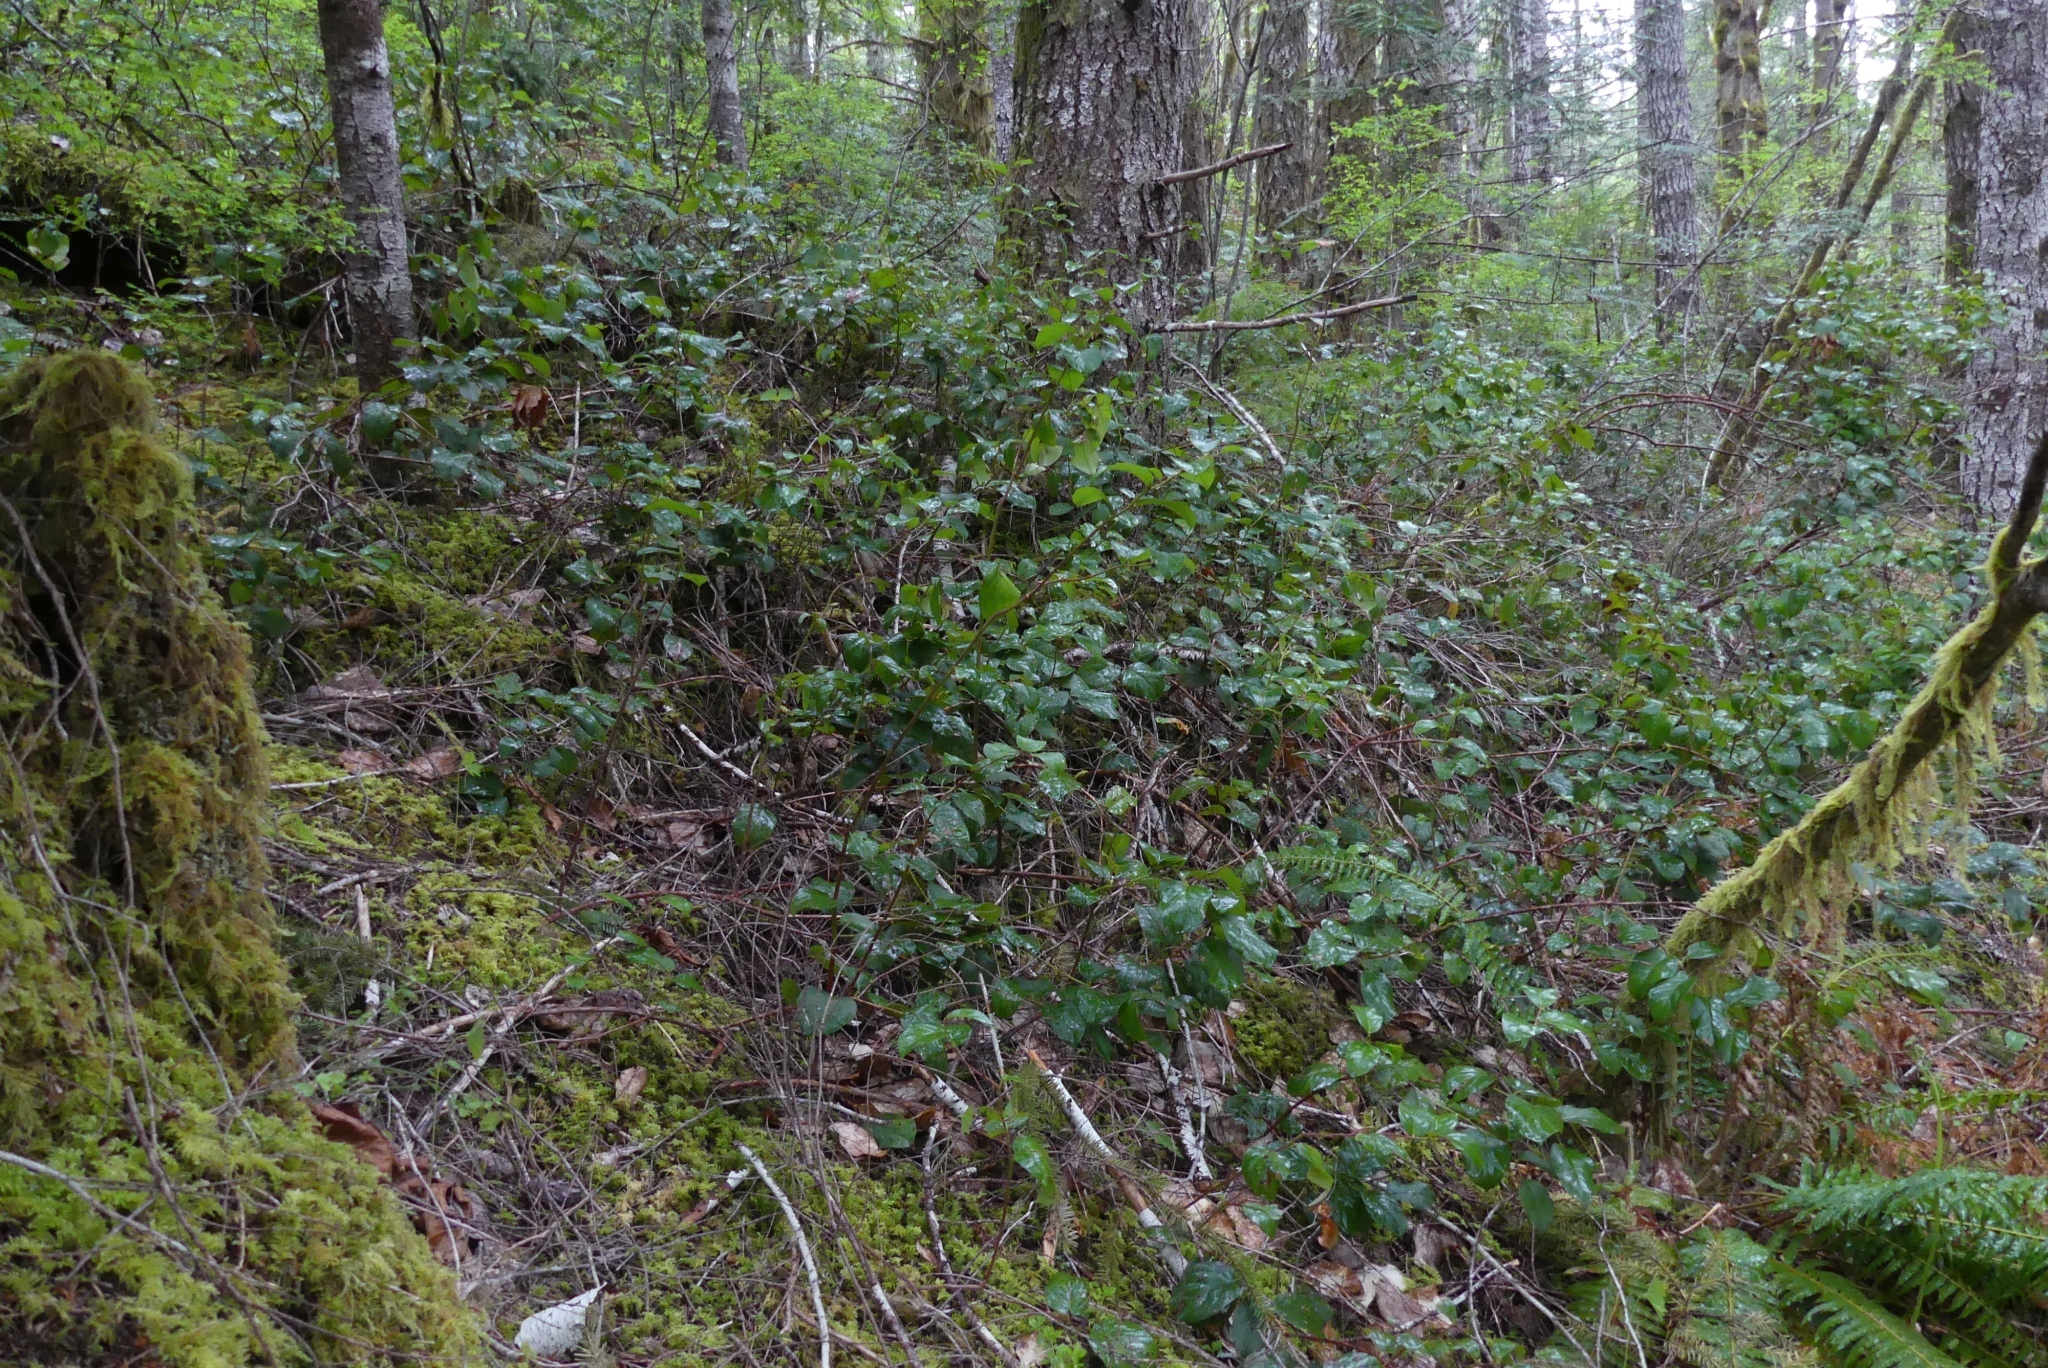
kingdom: Plantae
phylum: Tracheophyta
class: Magnoliopsida
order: Ericales
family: Ericaceae
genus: Gaultheria
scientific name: Gaultheria shallon
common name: Shallon
